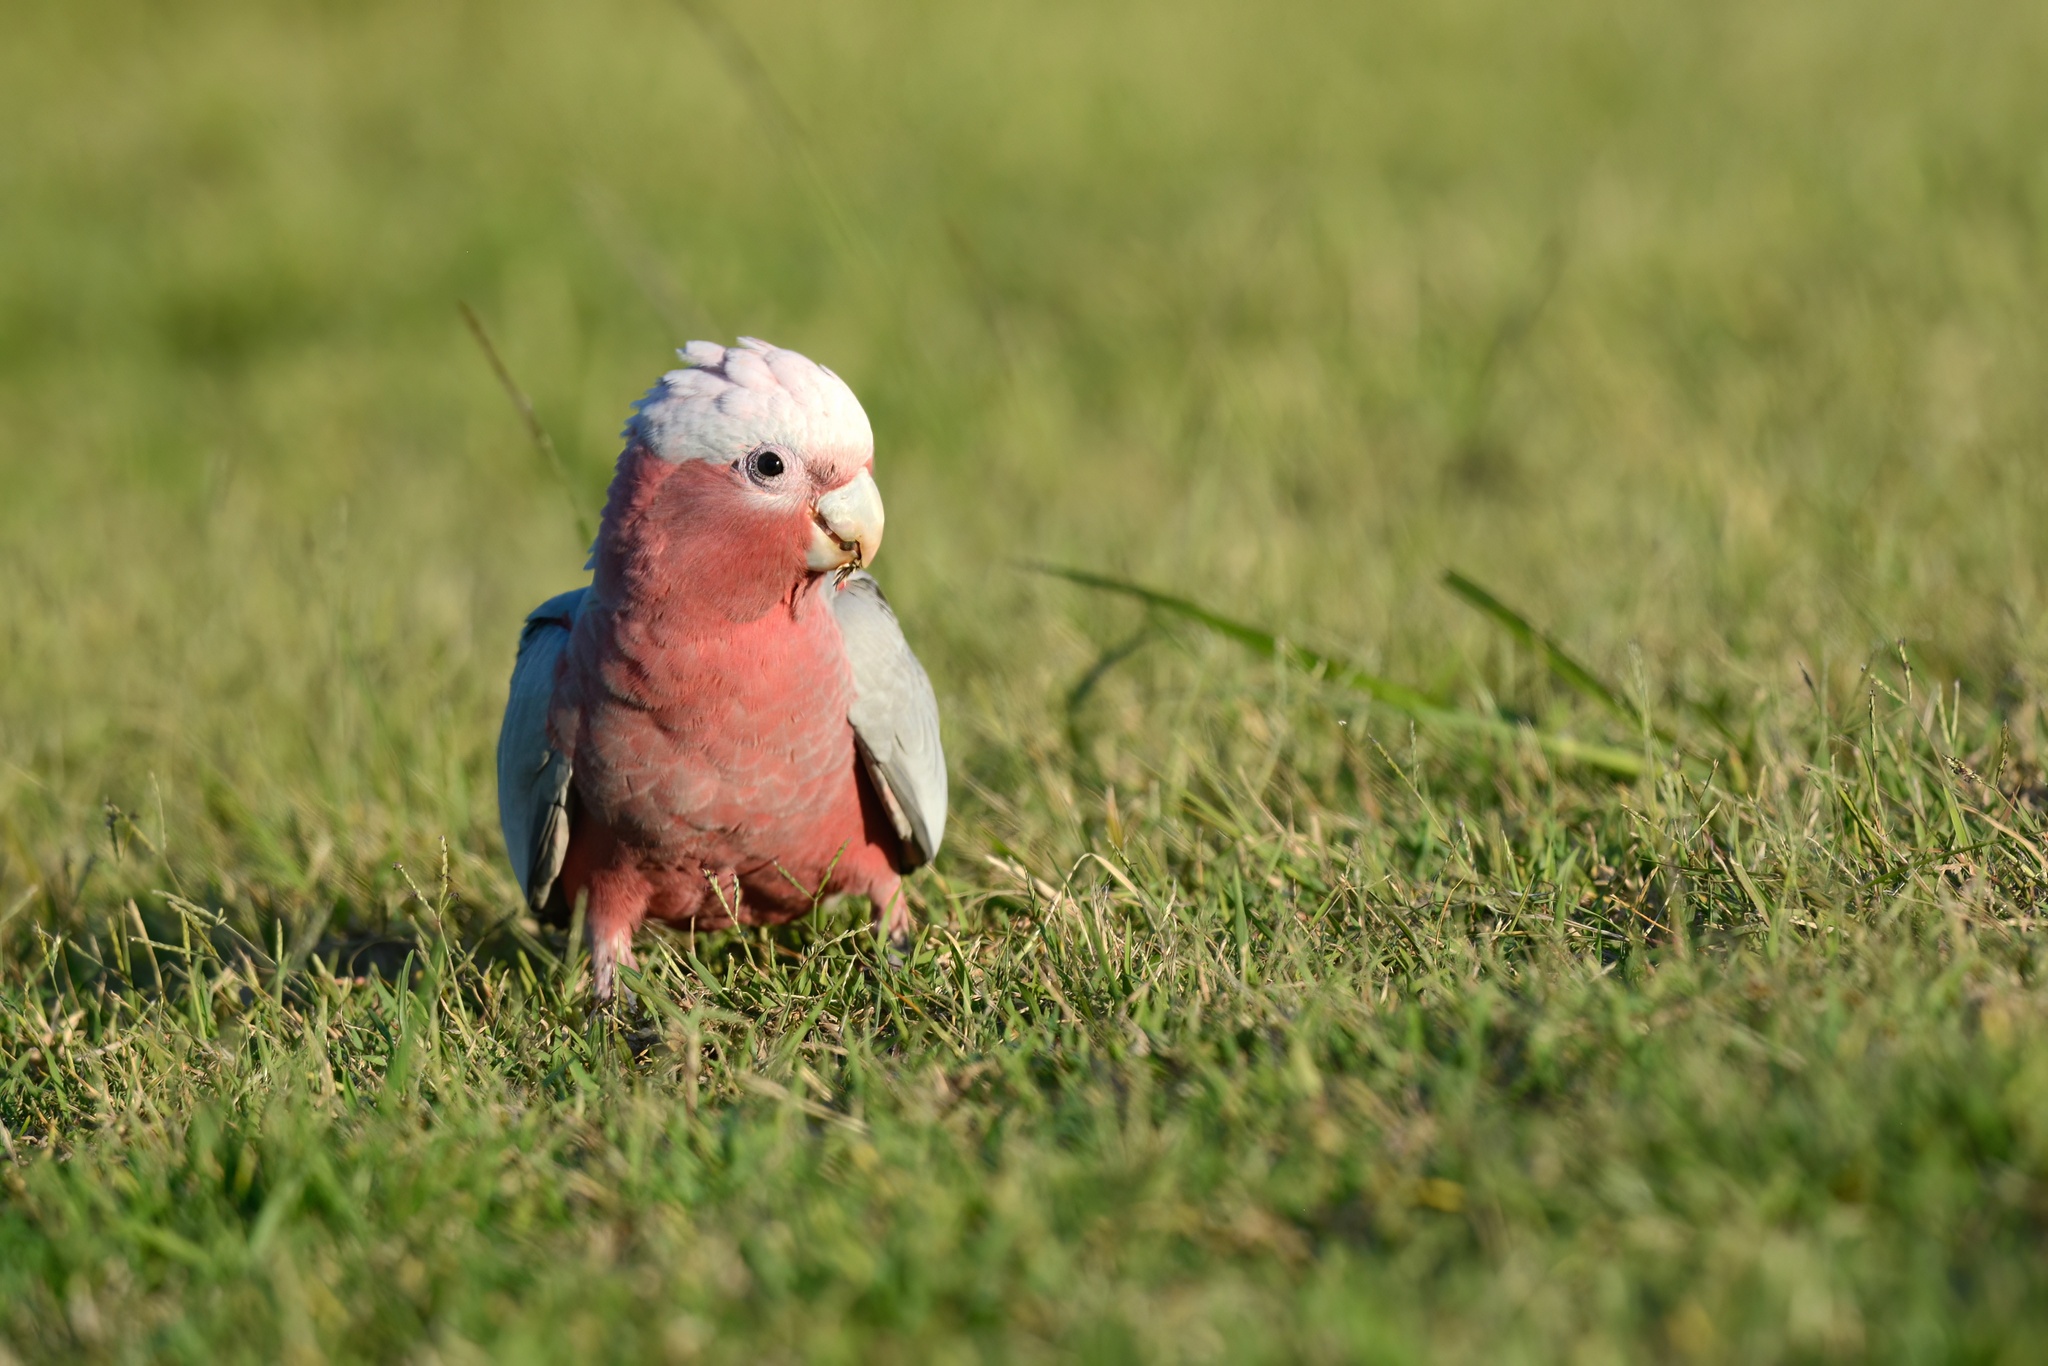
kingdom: Animalia
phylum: Chordata
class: Aves
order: Psittaciformes
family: Psittacidae
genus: Eolophus
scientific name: Eolophus roseicapilla
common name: Galah
